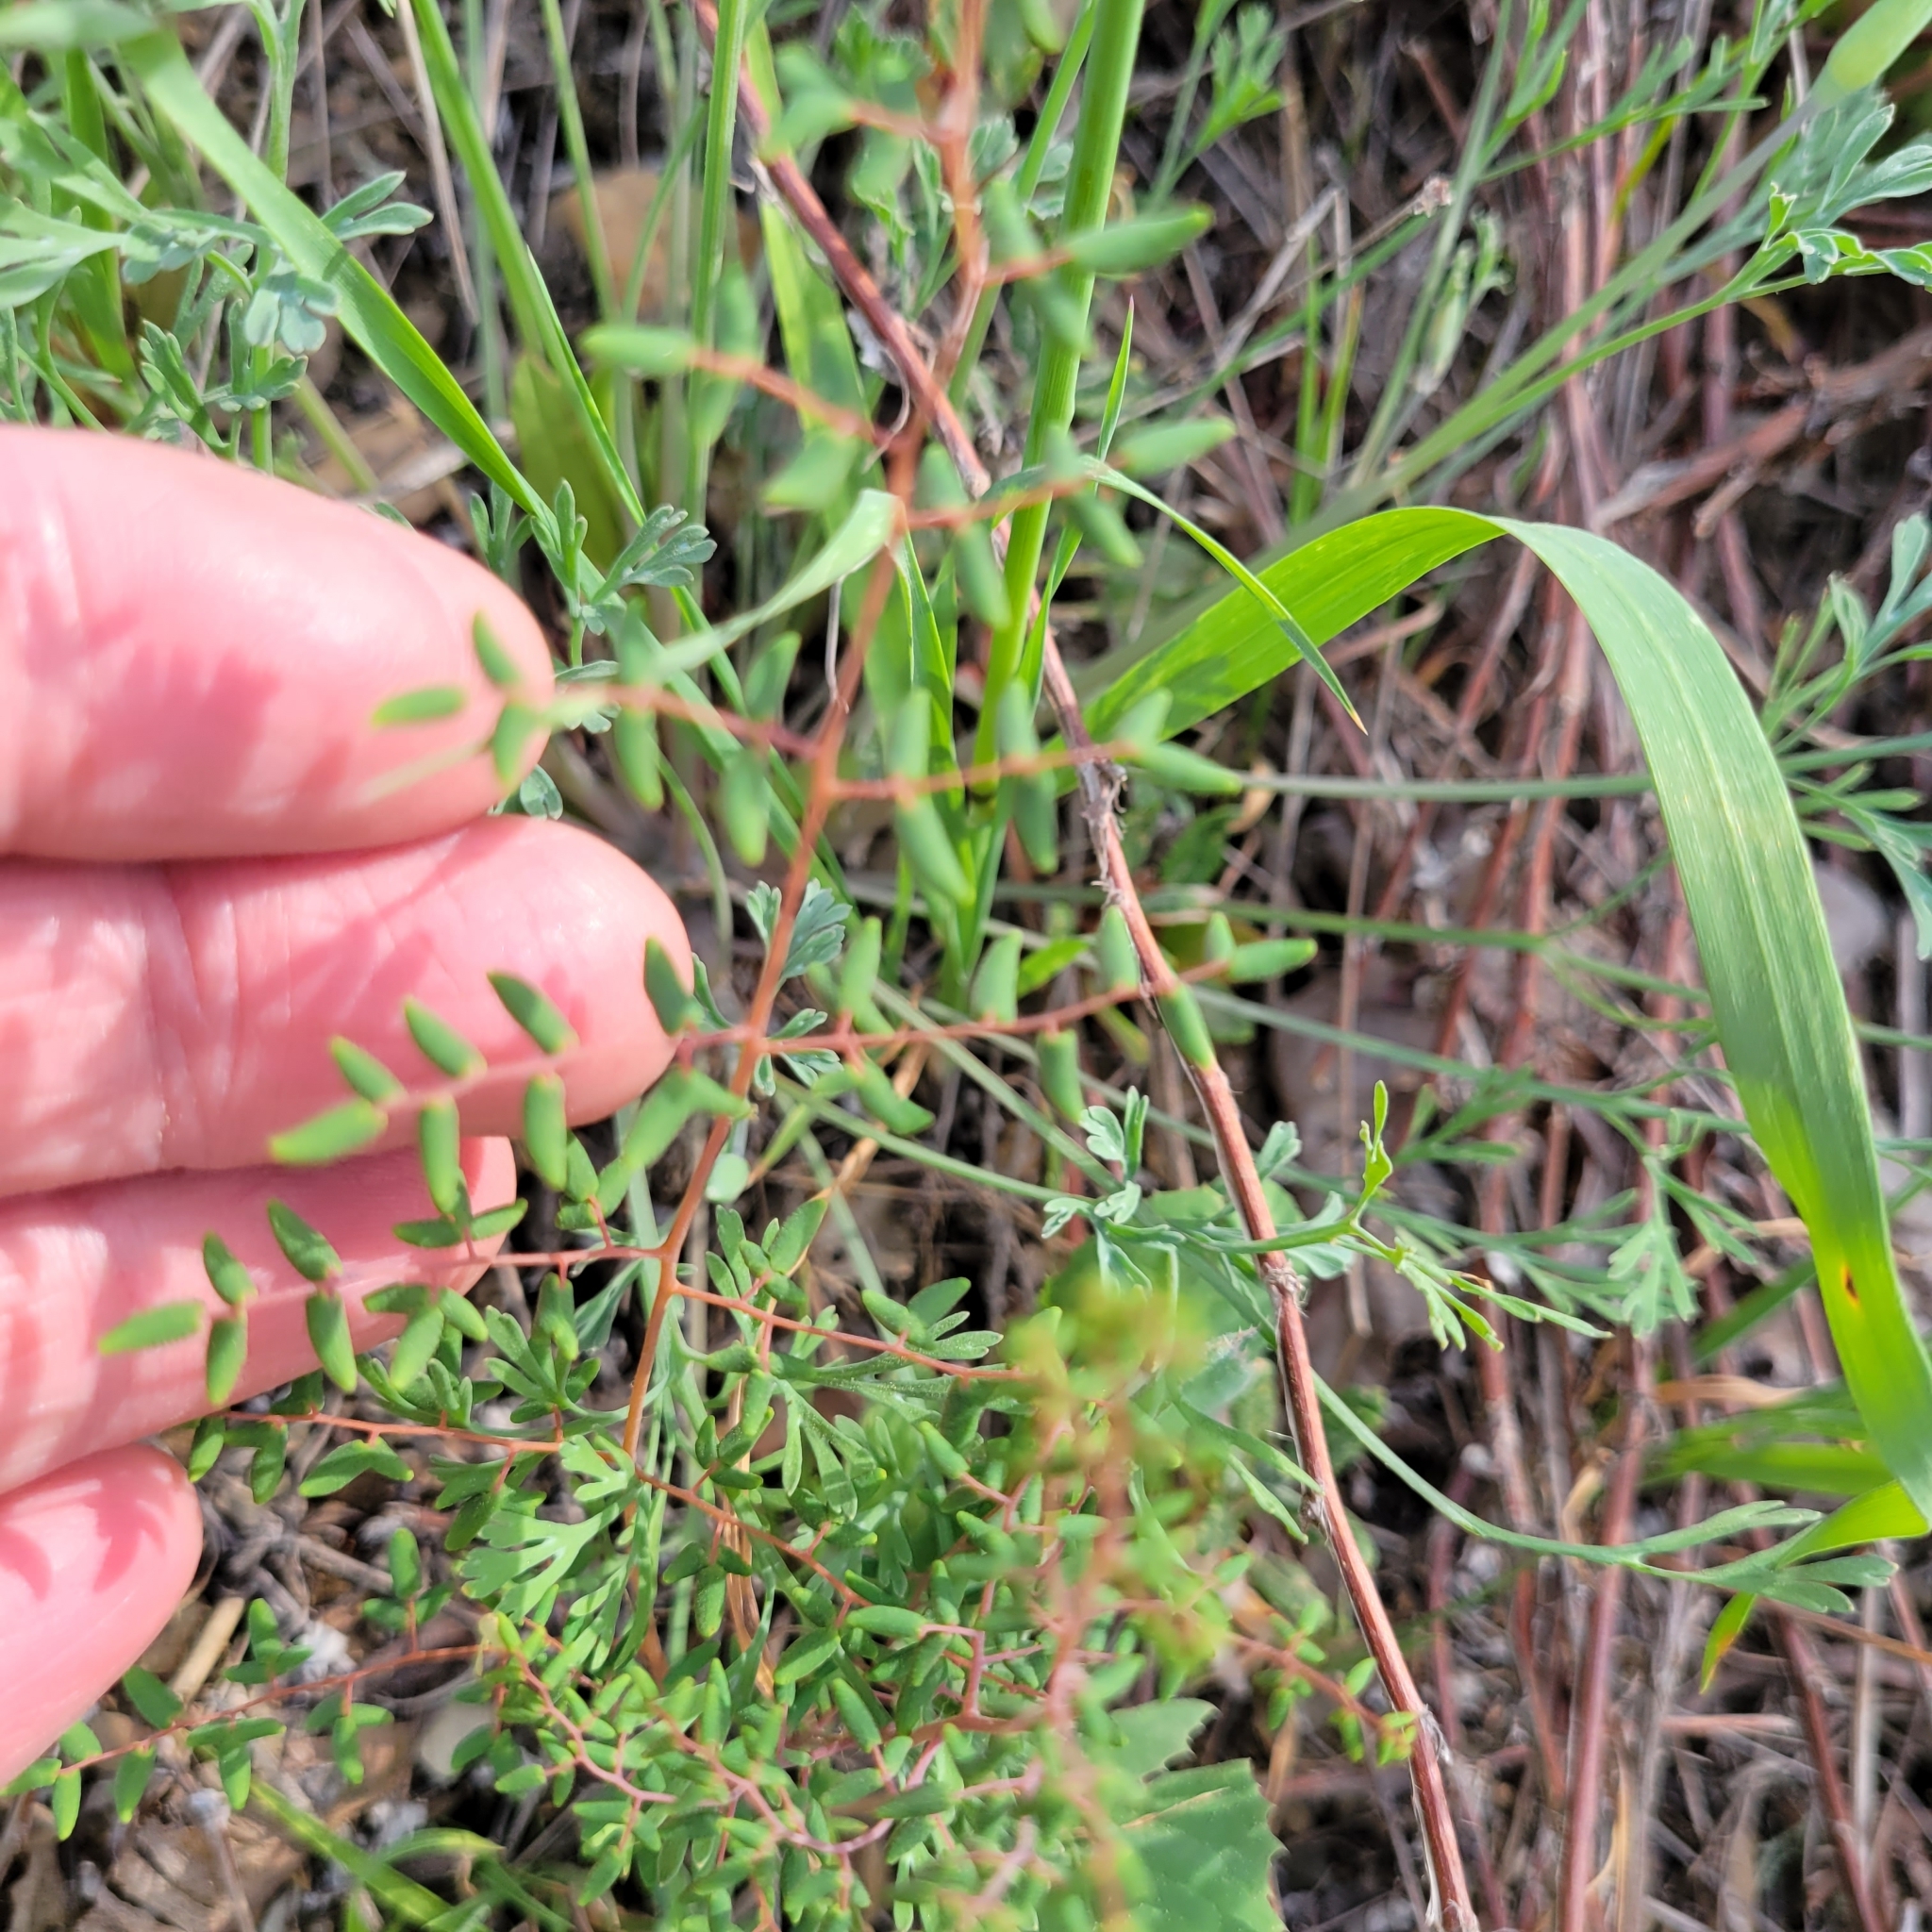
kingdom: Plantae
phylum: Tracheophyta
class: Polypodiopsida
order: Polypodiales
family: Pteridaceae
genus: Pellaea
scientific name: Pellaea andromedifolia
